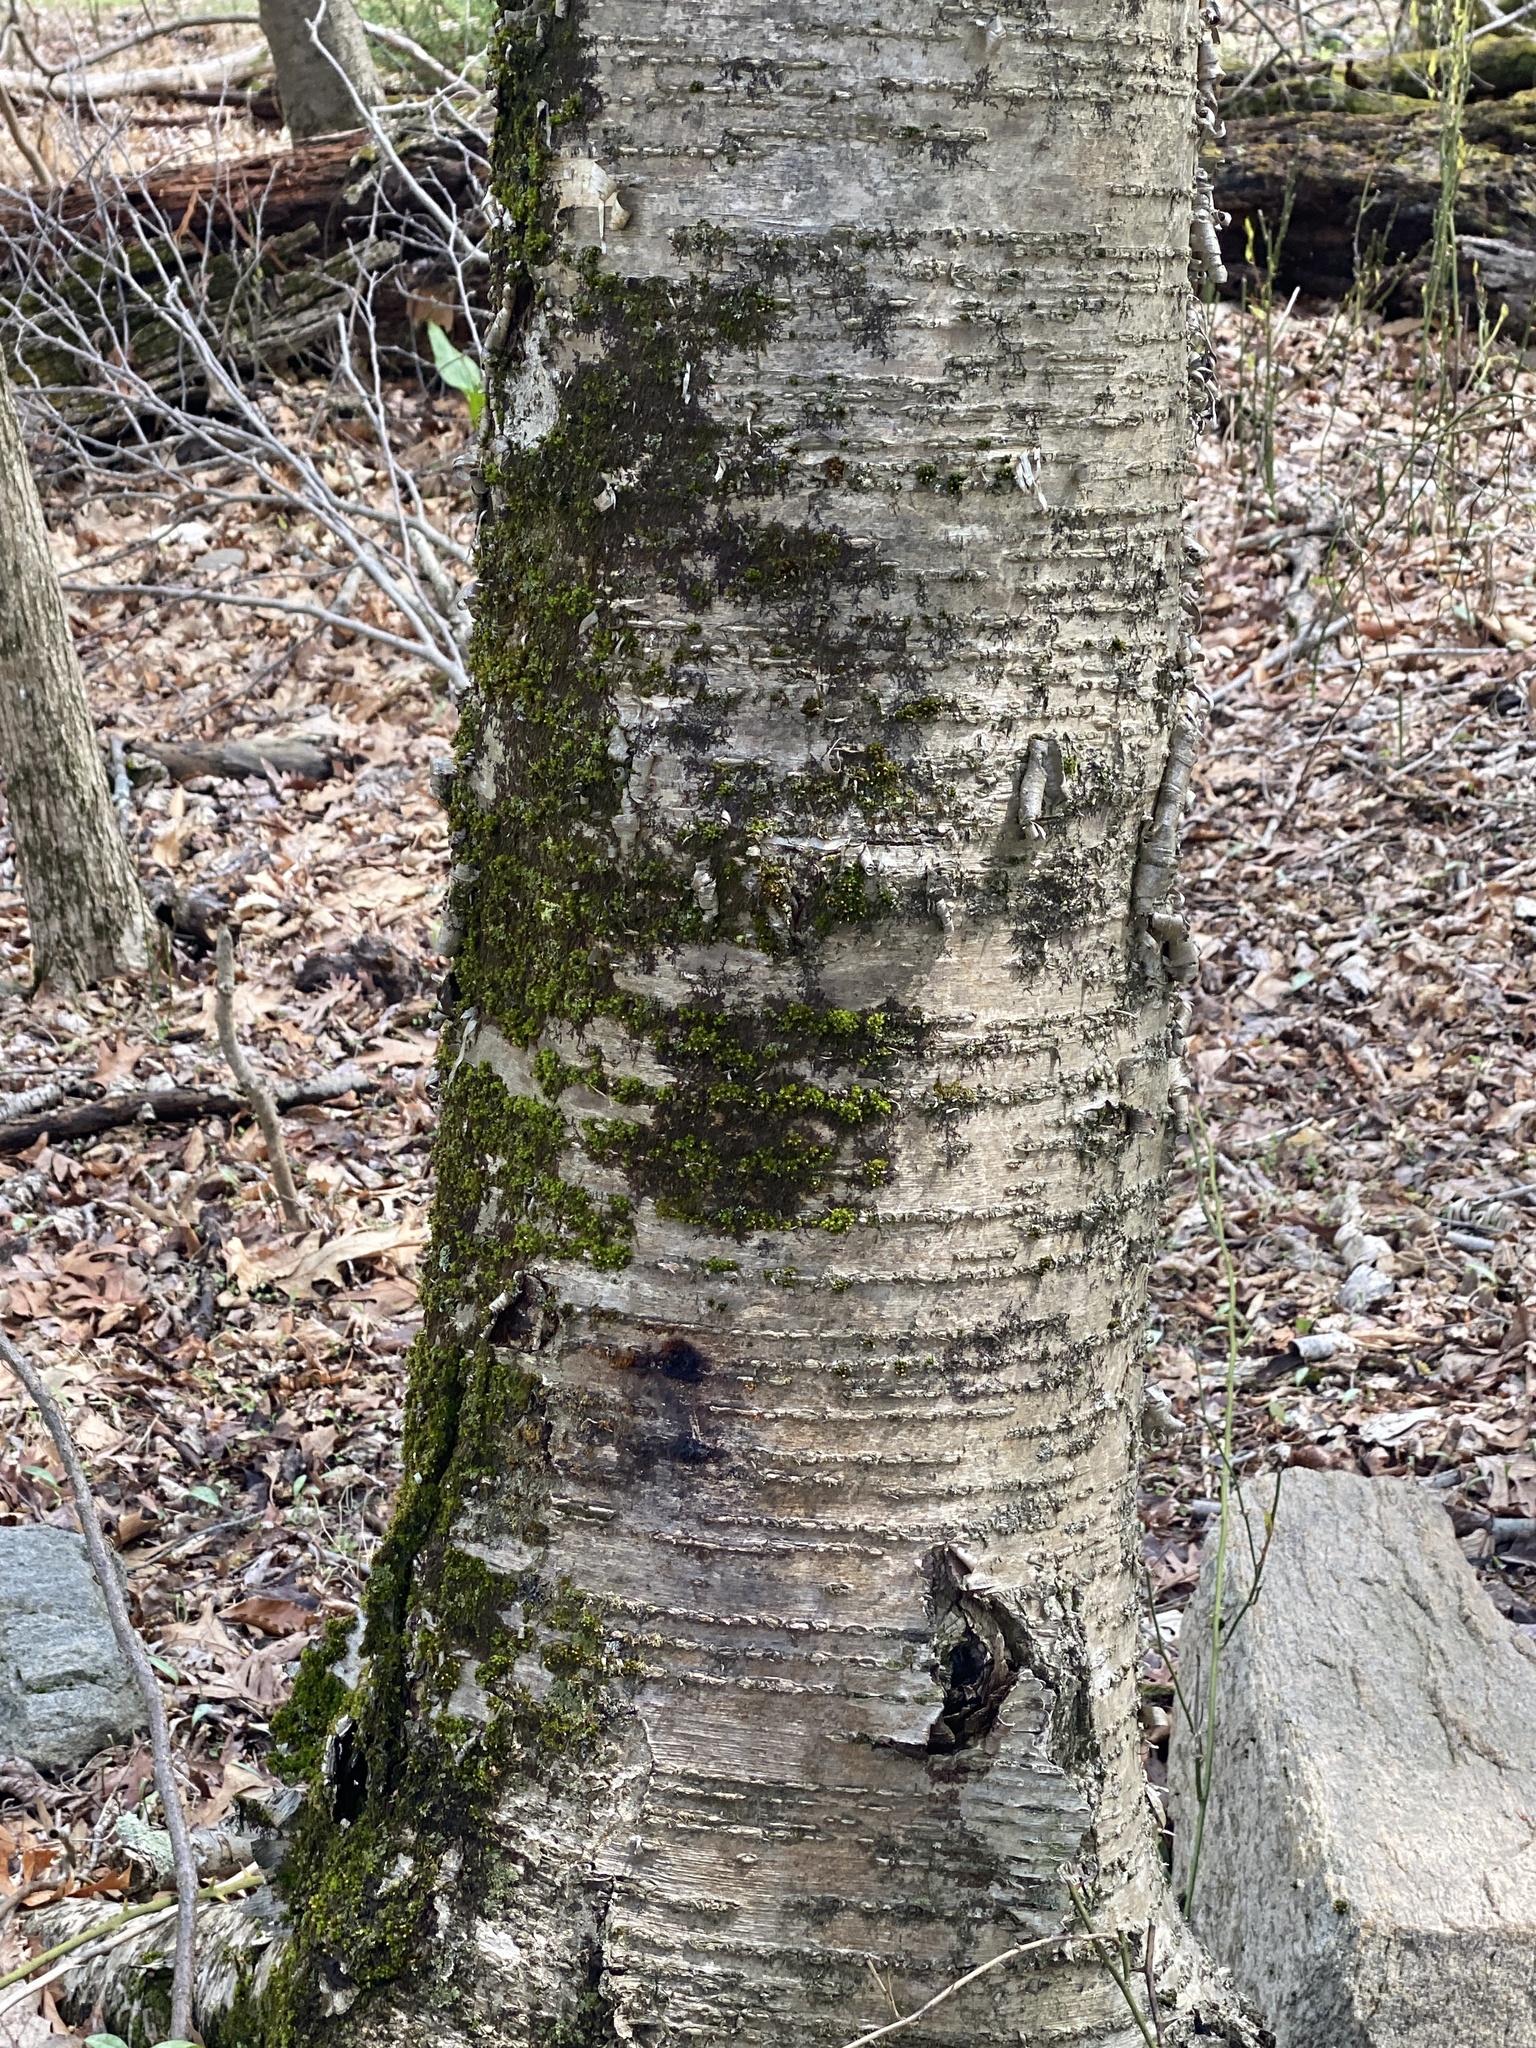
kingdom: Plantae
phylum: Tracheophyta
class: Magnoliopsida
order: Fagales
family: Betulaceae
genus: Betula
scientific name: Betula alleghaniensis
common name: Yellow birch
